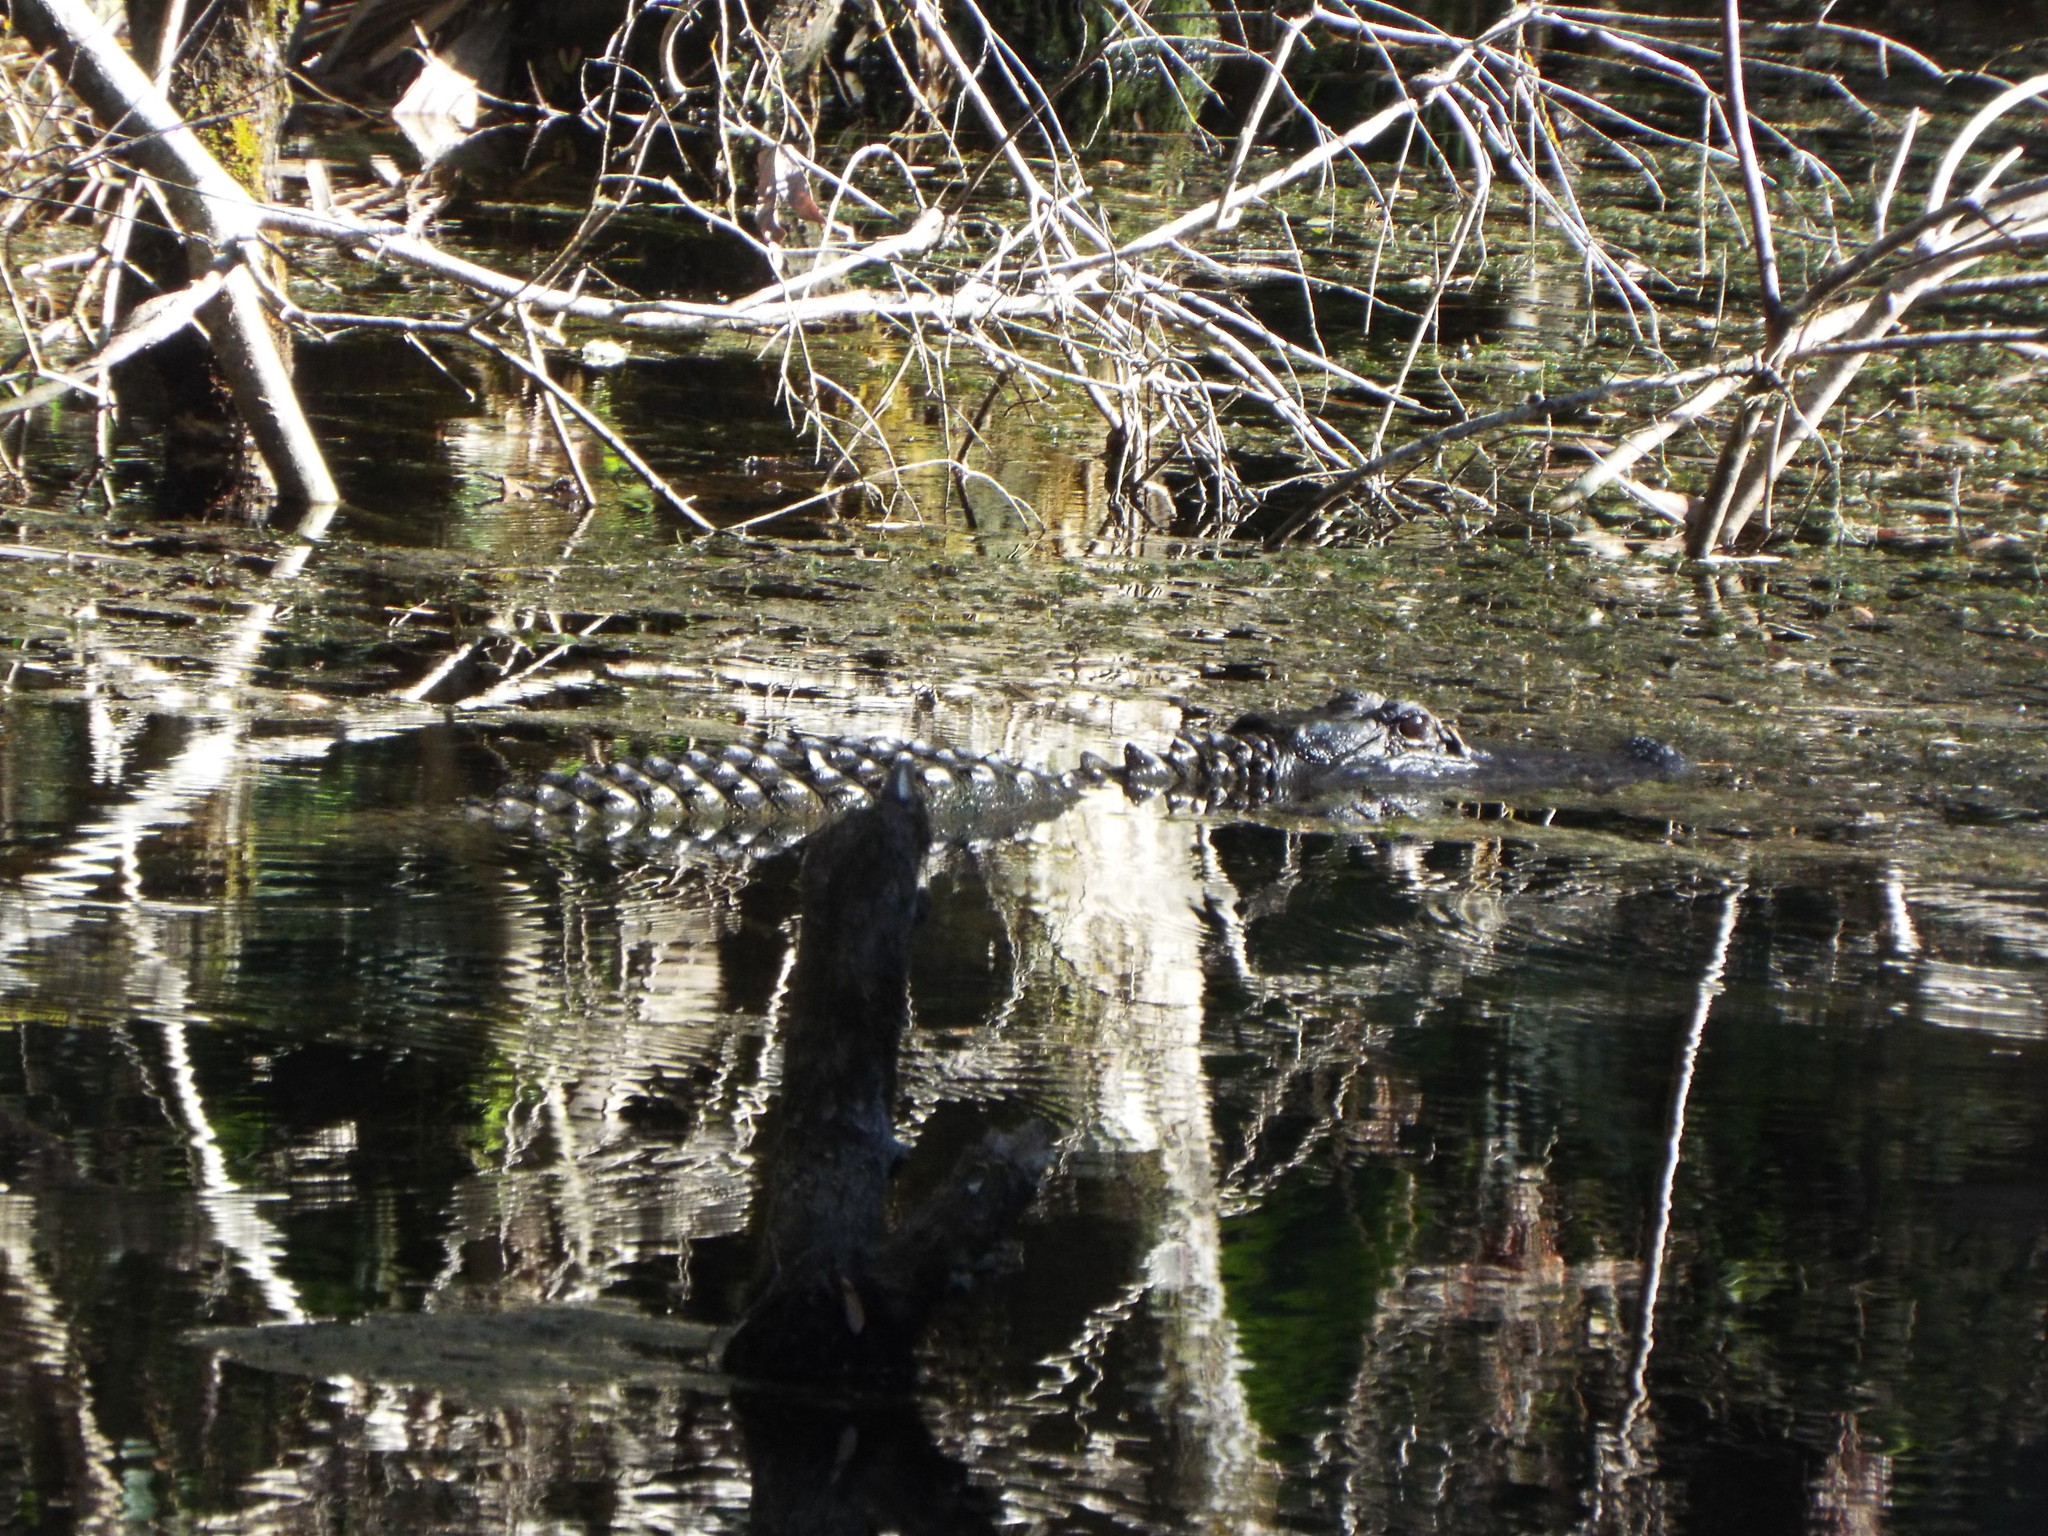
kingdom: Animalia
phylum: Chordata
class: Crocodylia
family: Alligatoridae
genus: Alligator
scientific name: Alligator mississippiensis
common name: American alligator
